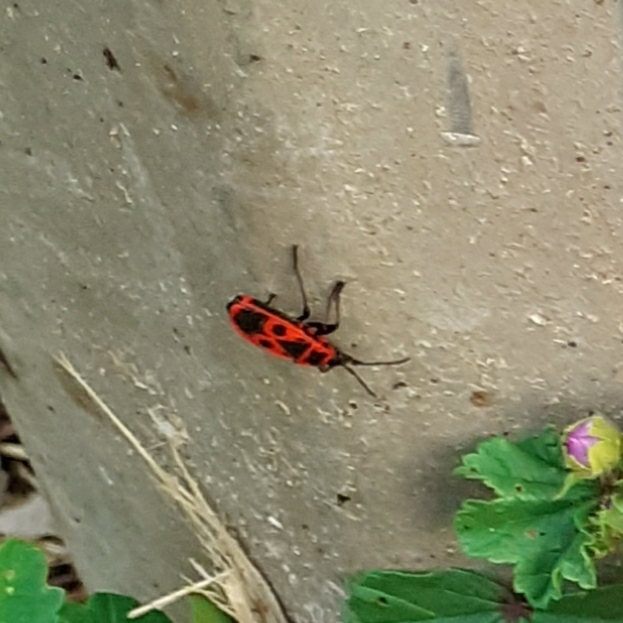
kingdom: Animalia
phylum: Arthropoda
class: Insecta
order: Hemiptera
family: Pyrrhocoridae
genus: Pyrrhocoris
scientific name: Pyrrhocoris apterus
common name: Firebug
